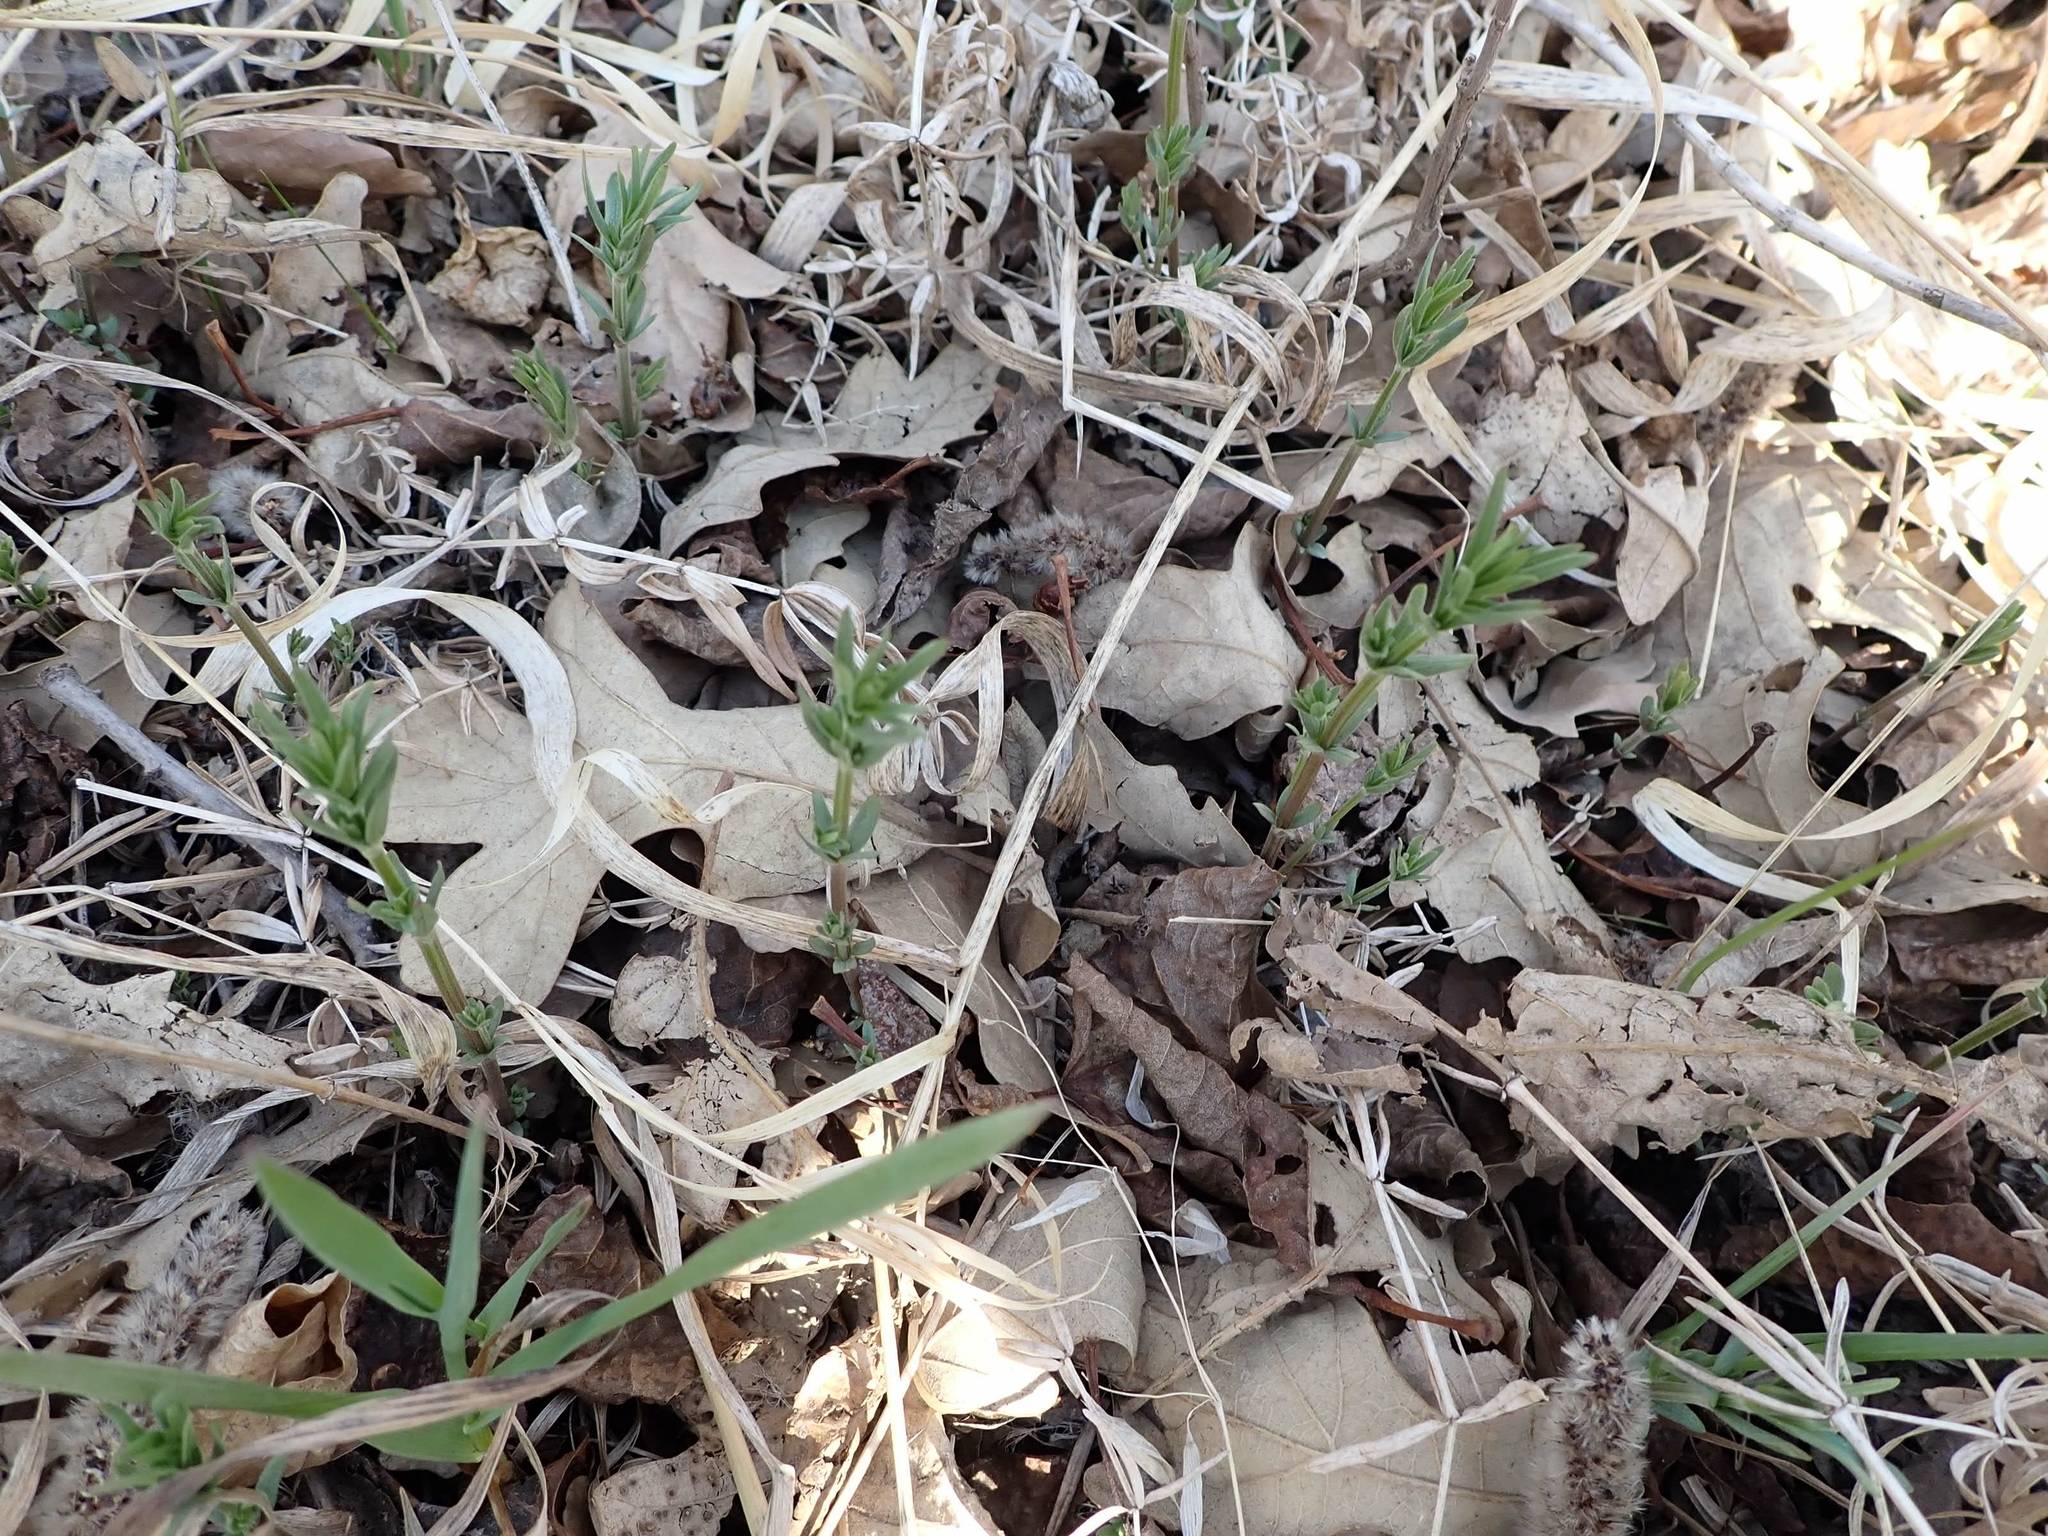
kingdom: Plantae
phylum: Tracheophyta
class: Magnoliopsida
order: Gentianales
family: Rubiaceae
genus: Galium
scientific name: Galium boreale
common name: Northern bedstraw
